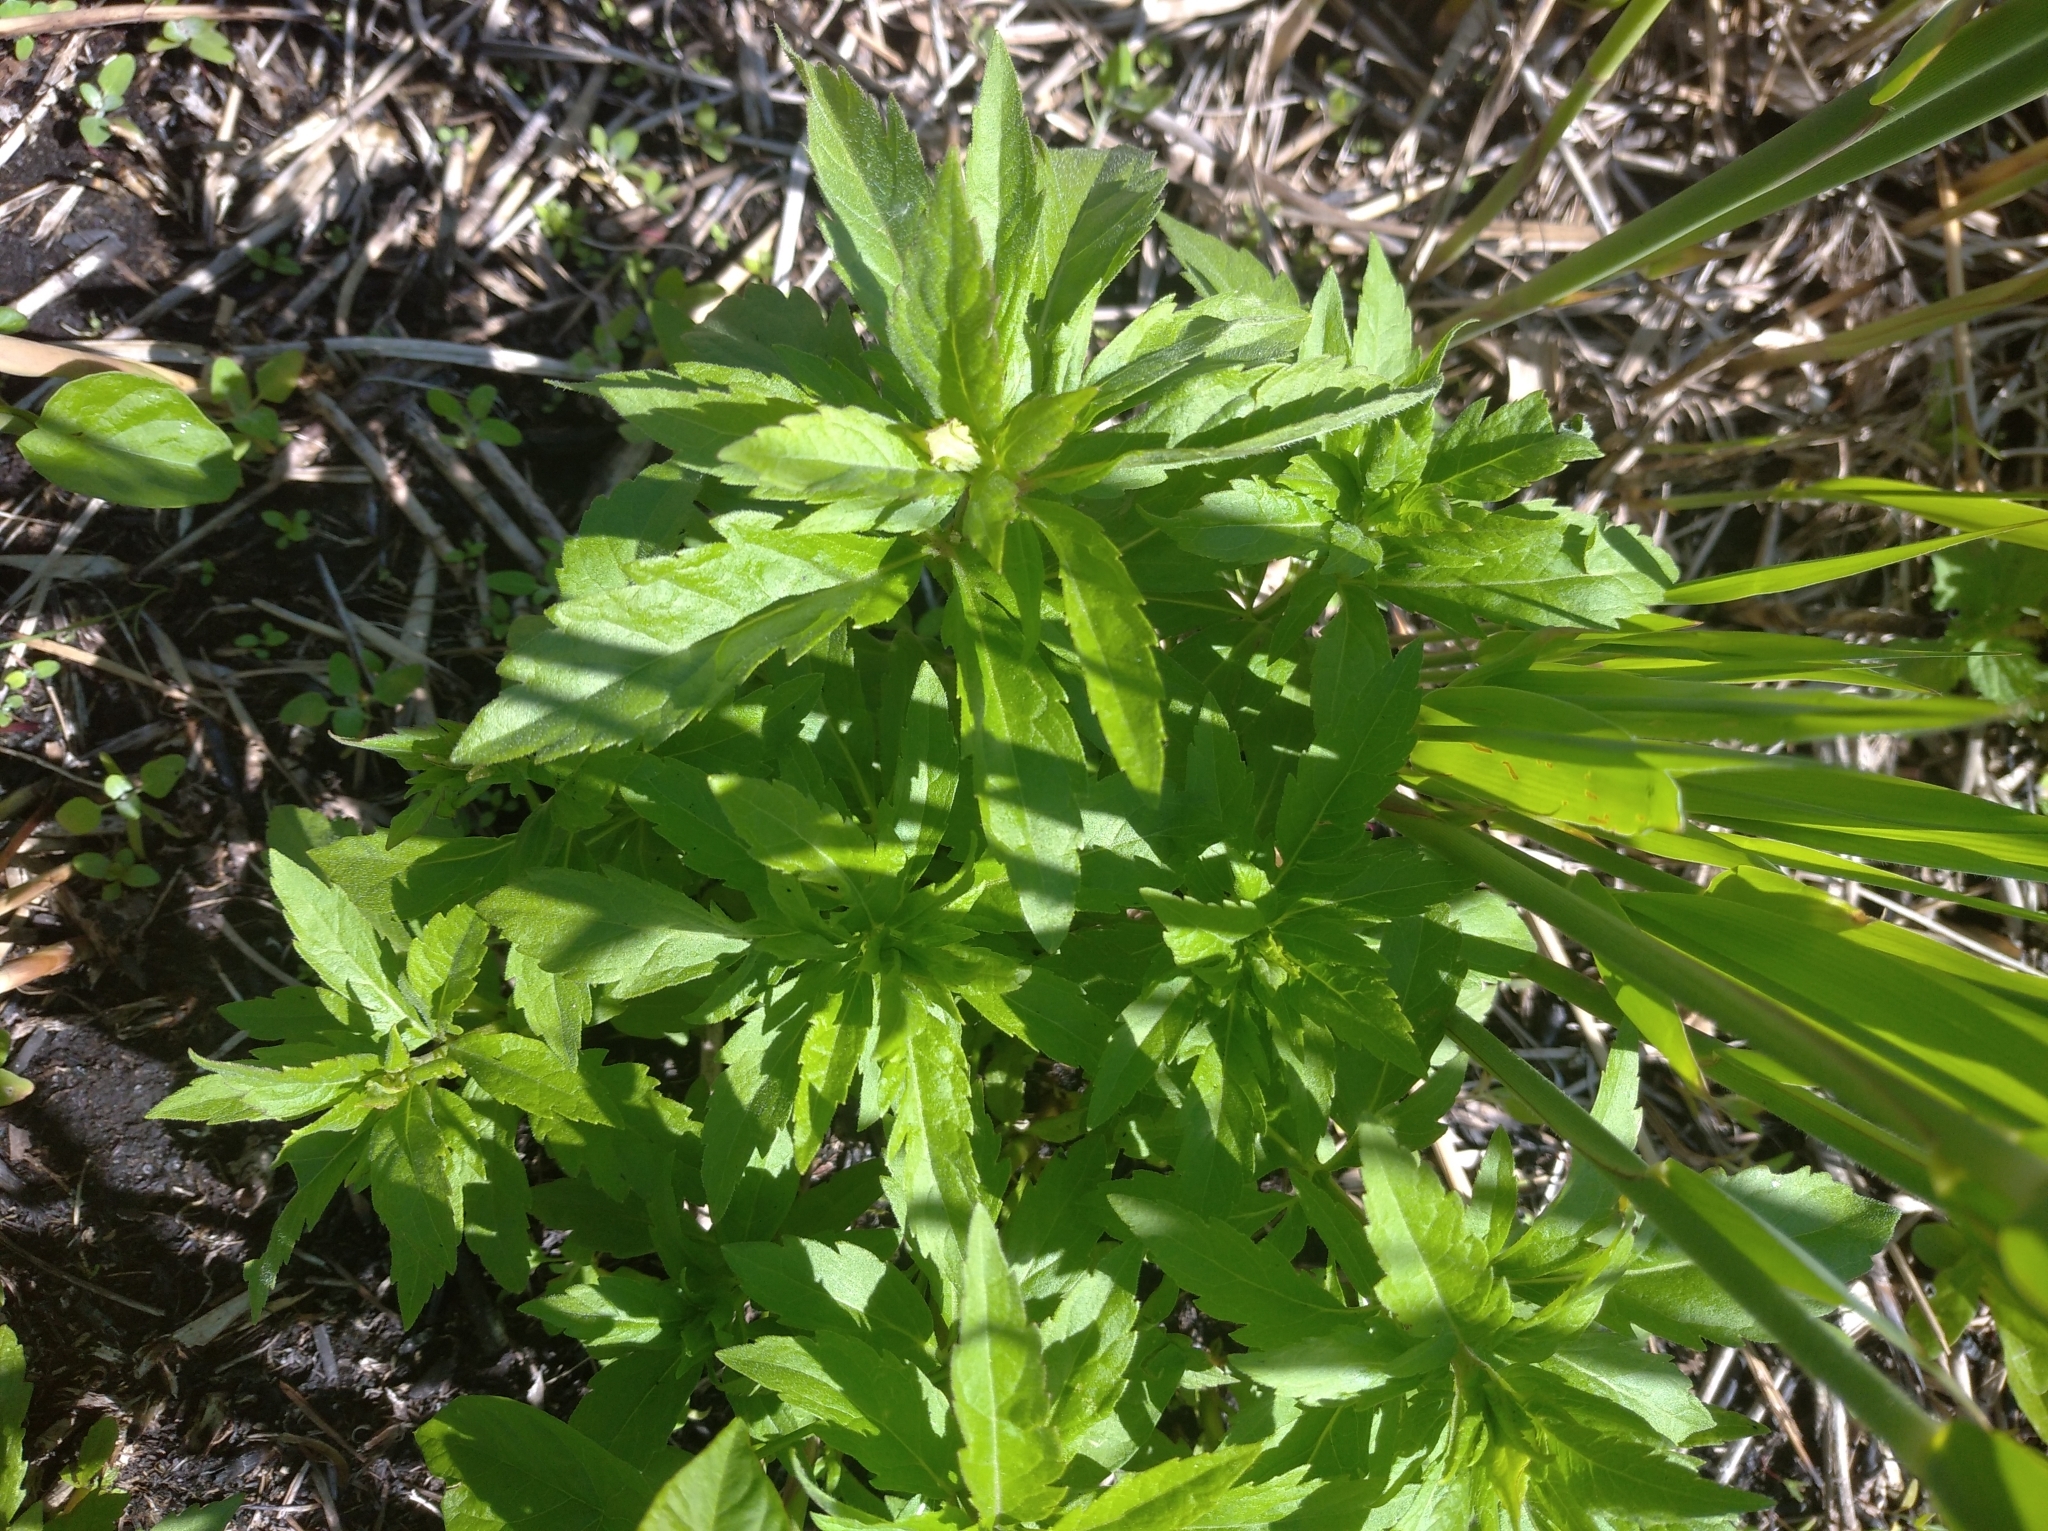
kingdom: Plantae
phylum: Tracheophyta
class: Magnoliopsida
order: Asterales
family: Asteraceae
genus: Eupatorium
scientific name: Eupatorium cannabinum
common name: Hemp-agrimony
